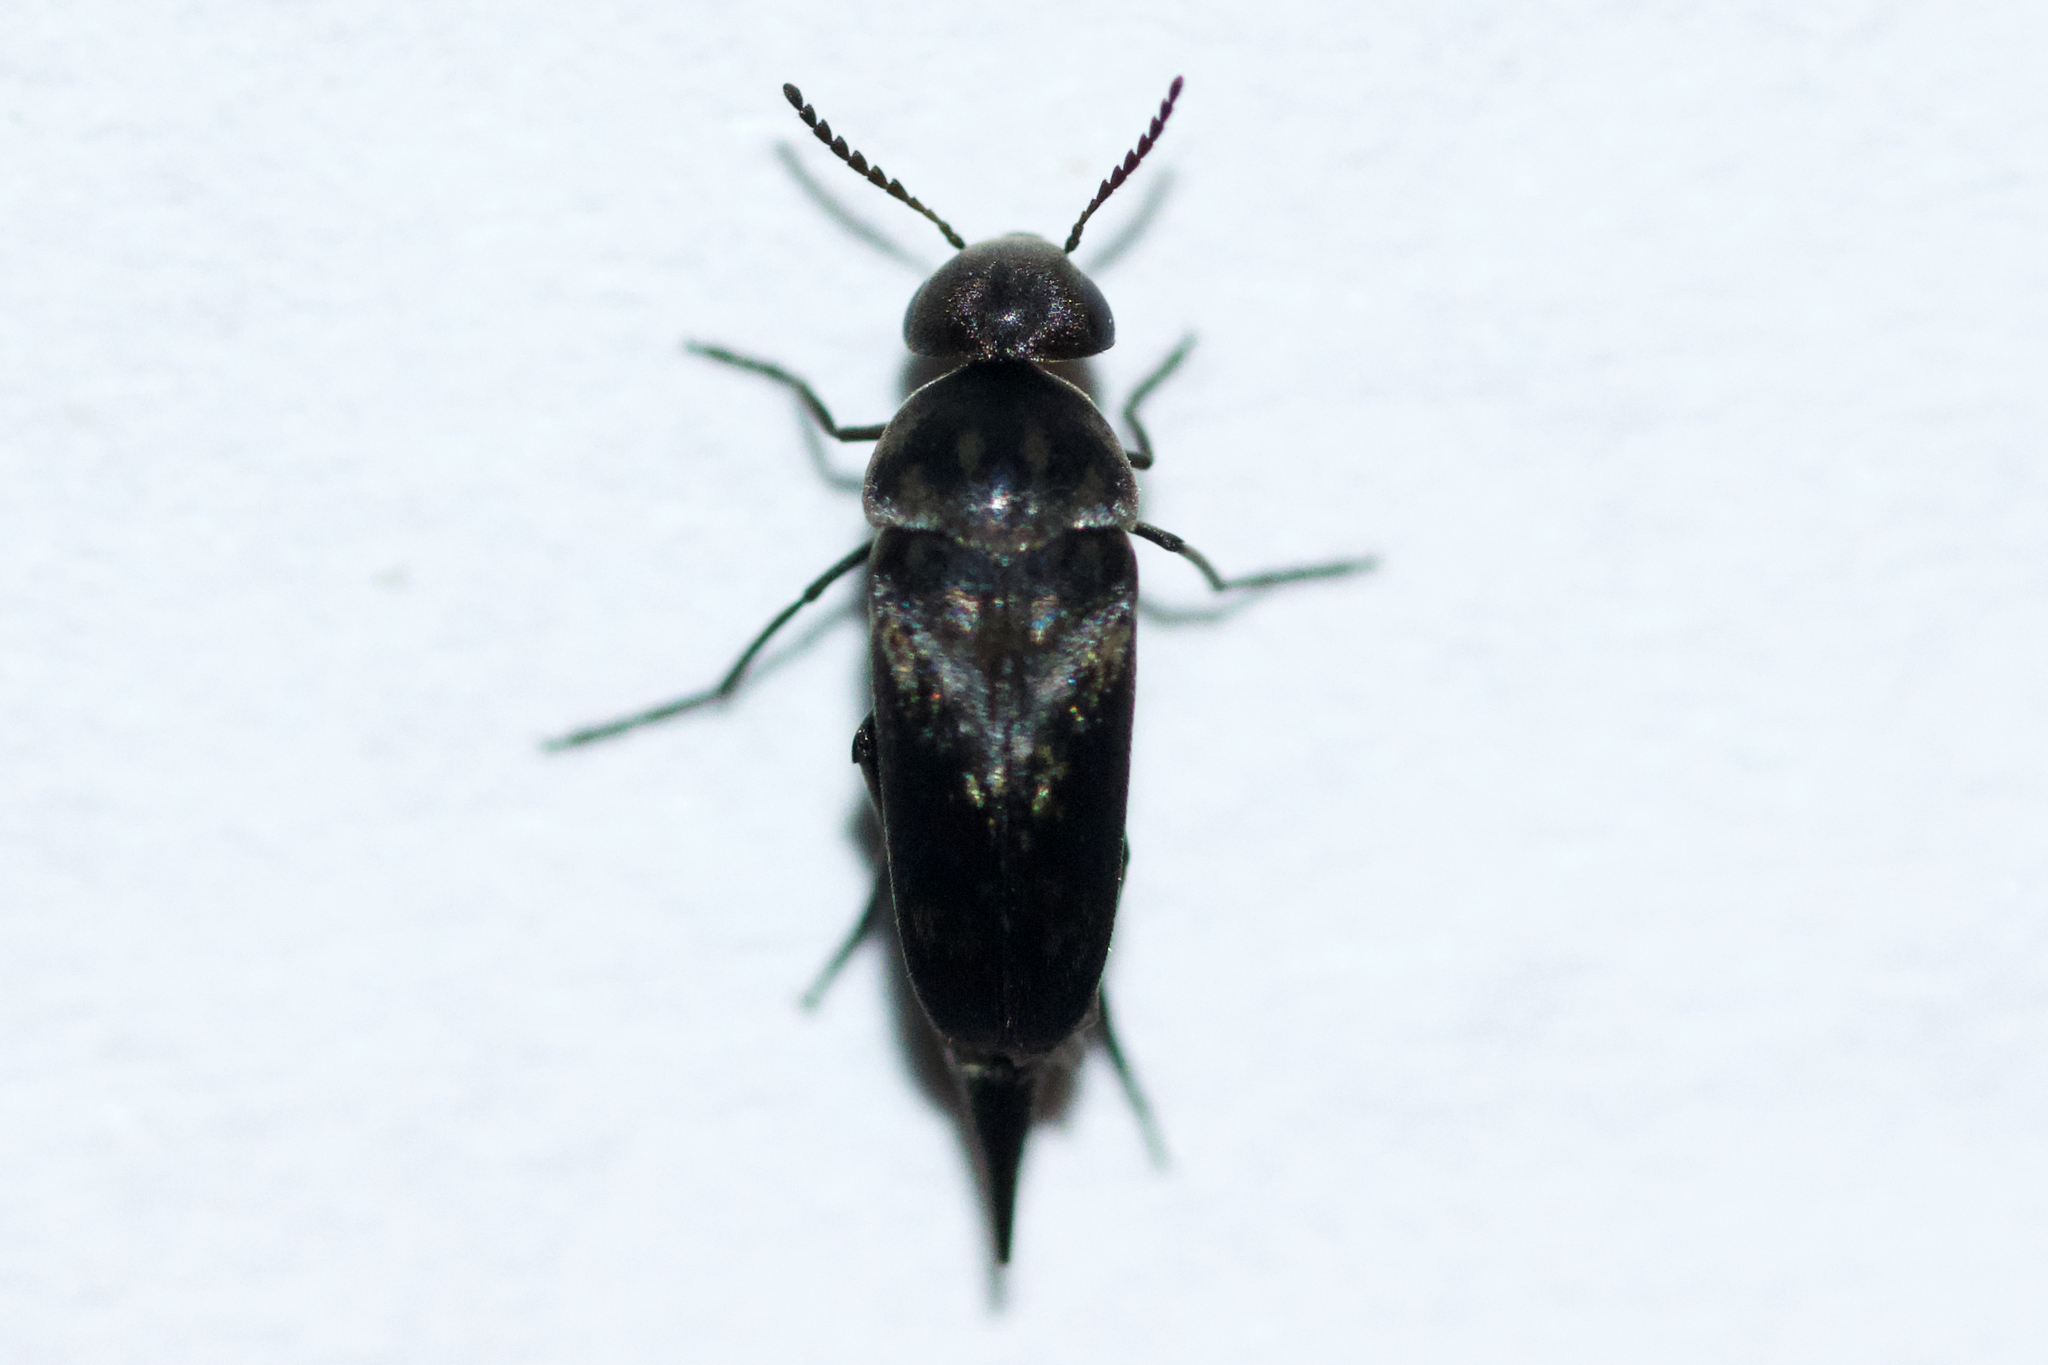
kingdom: Animalia
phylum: Arthropoda
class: Insecta
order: Coleoptera
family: Mordellidae
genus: Mordella
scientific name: Mordella marginata
